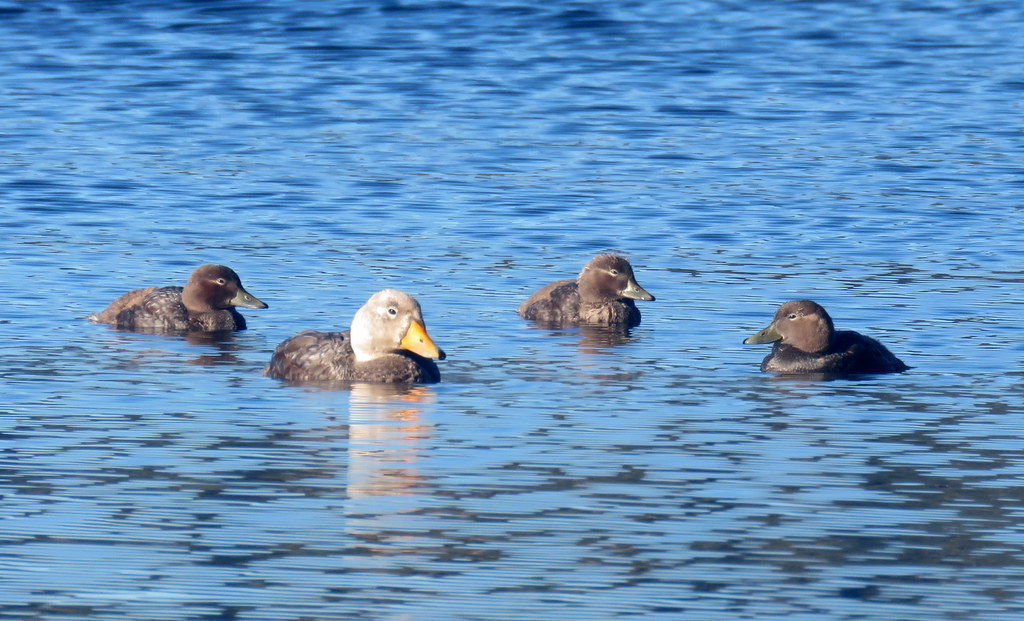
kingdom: Animalia
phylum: Chordata
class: Aves
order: Anseriformes
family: Anatidae
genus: Tachyeres
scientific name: Tachyeres patachonicus
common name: Flying steamer duck
